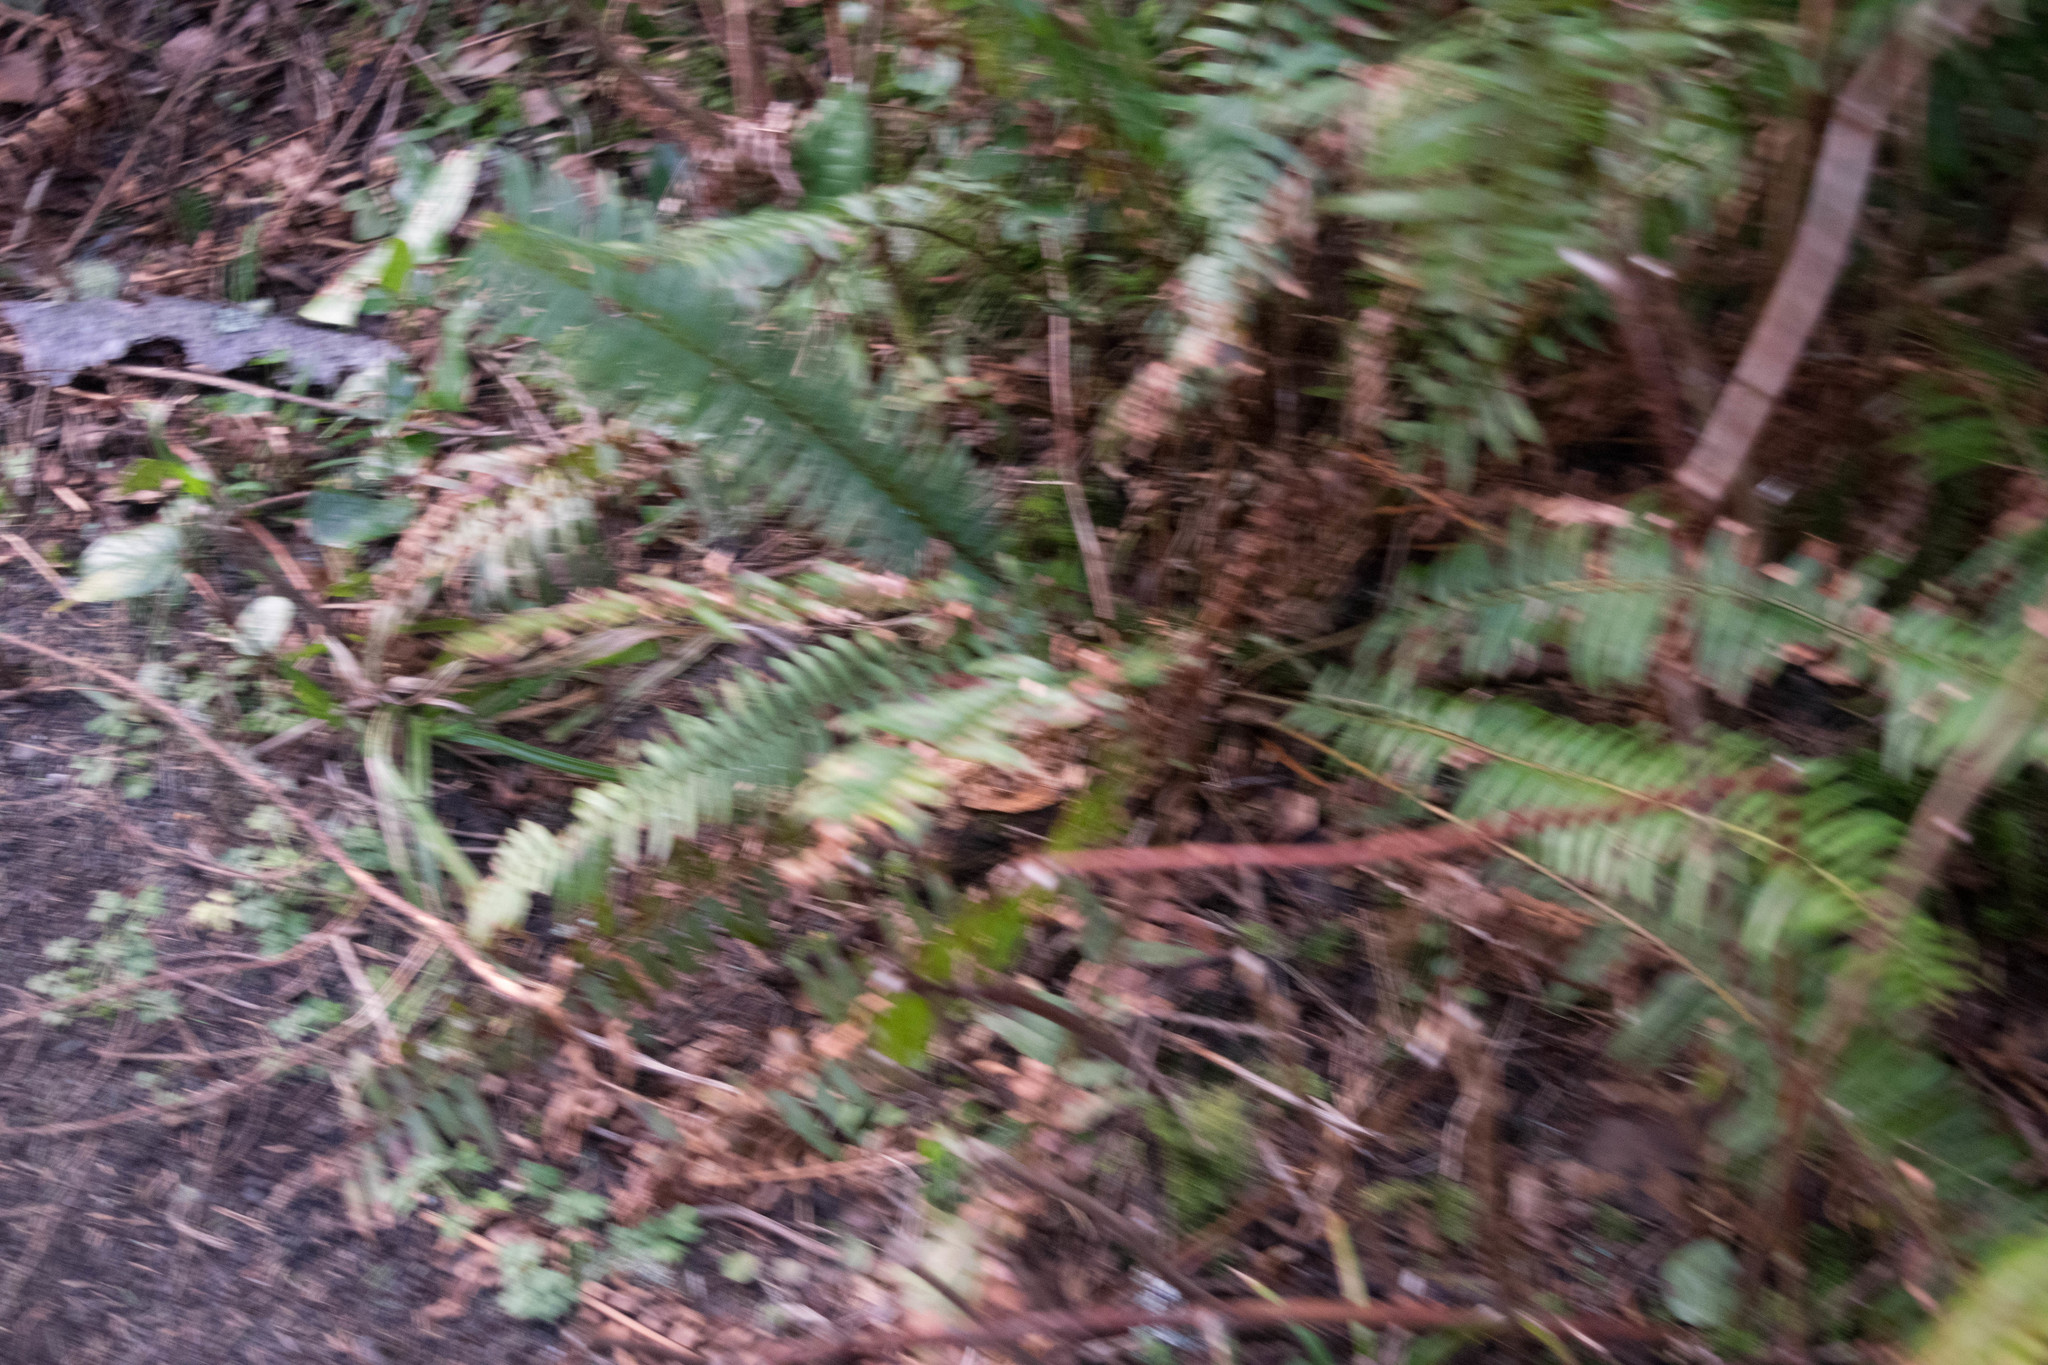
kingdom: Plantae
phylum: Tracheophyta
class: Polypodiopsida
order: Polypodiales
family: Dryopteridaceae
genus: Polystichum
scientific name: Polystichum munitum
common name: Western sword-fern
